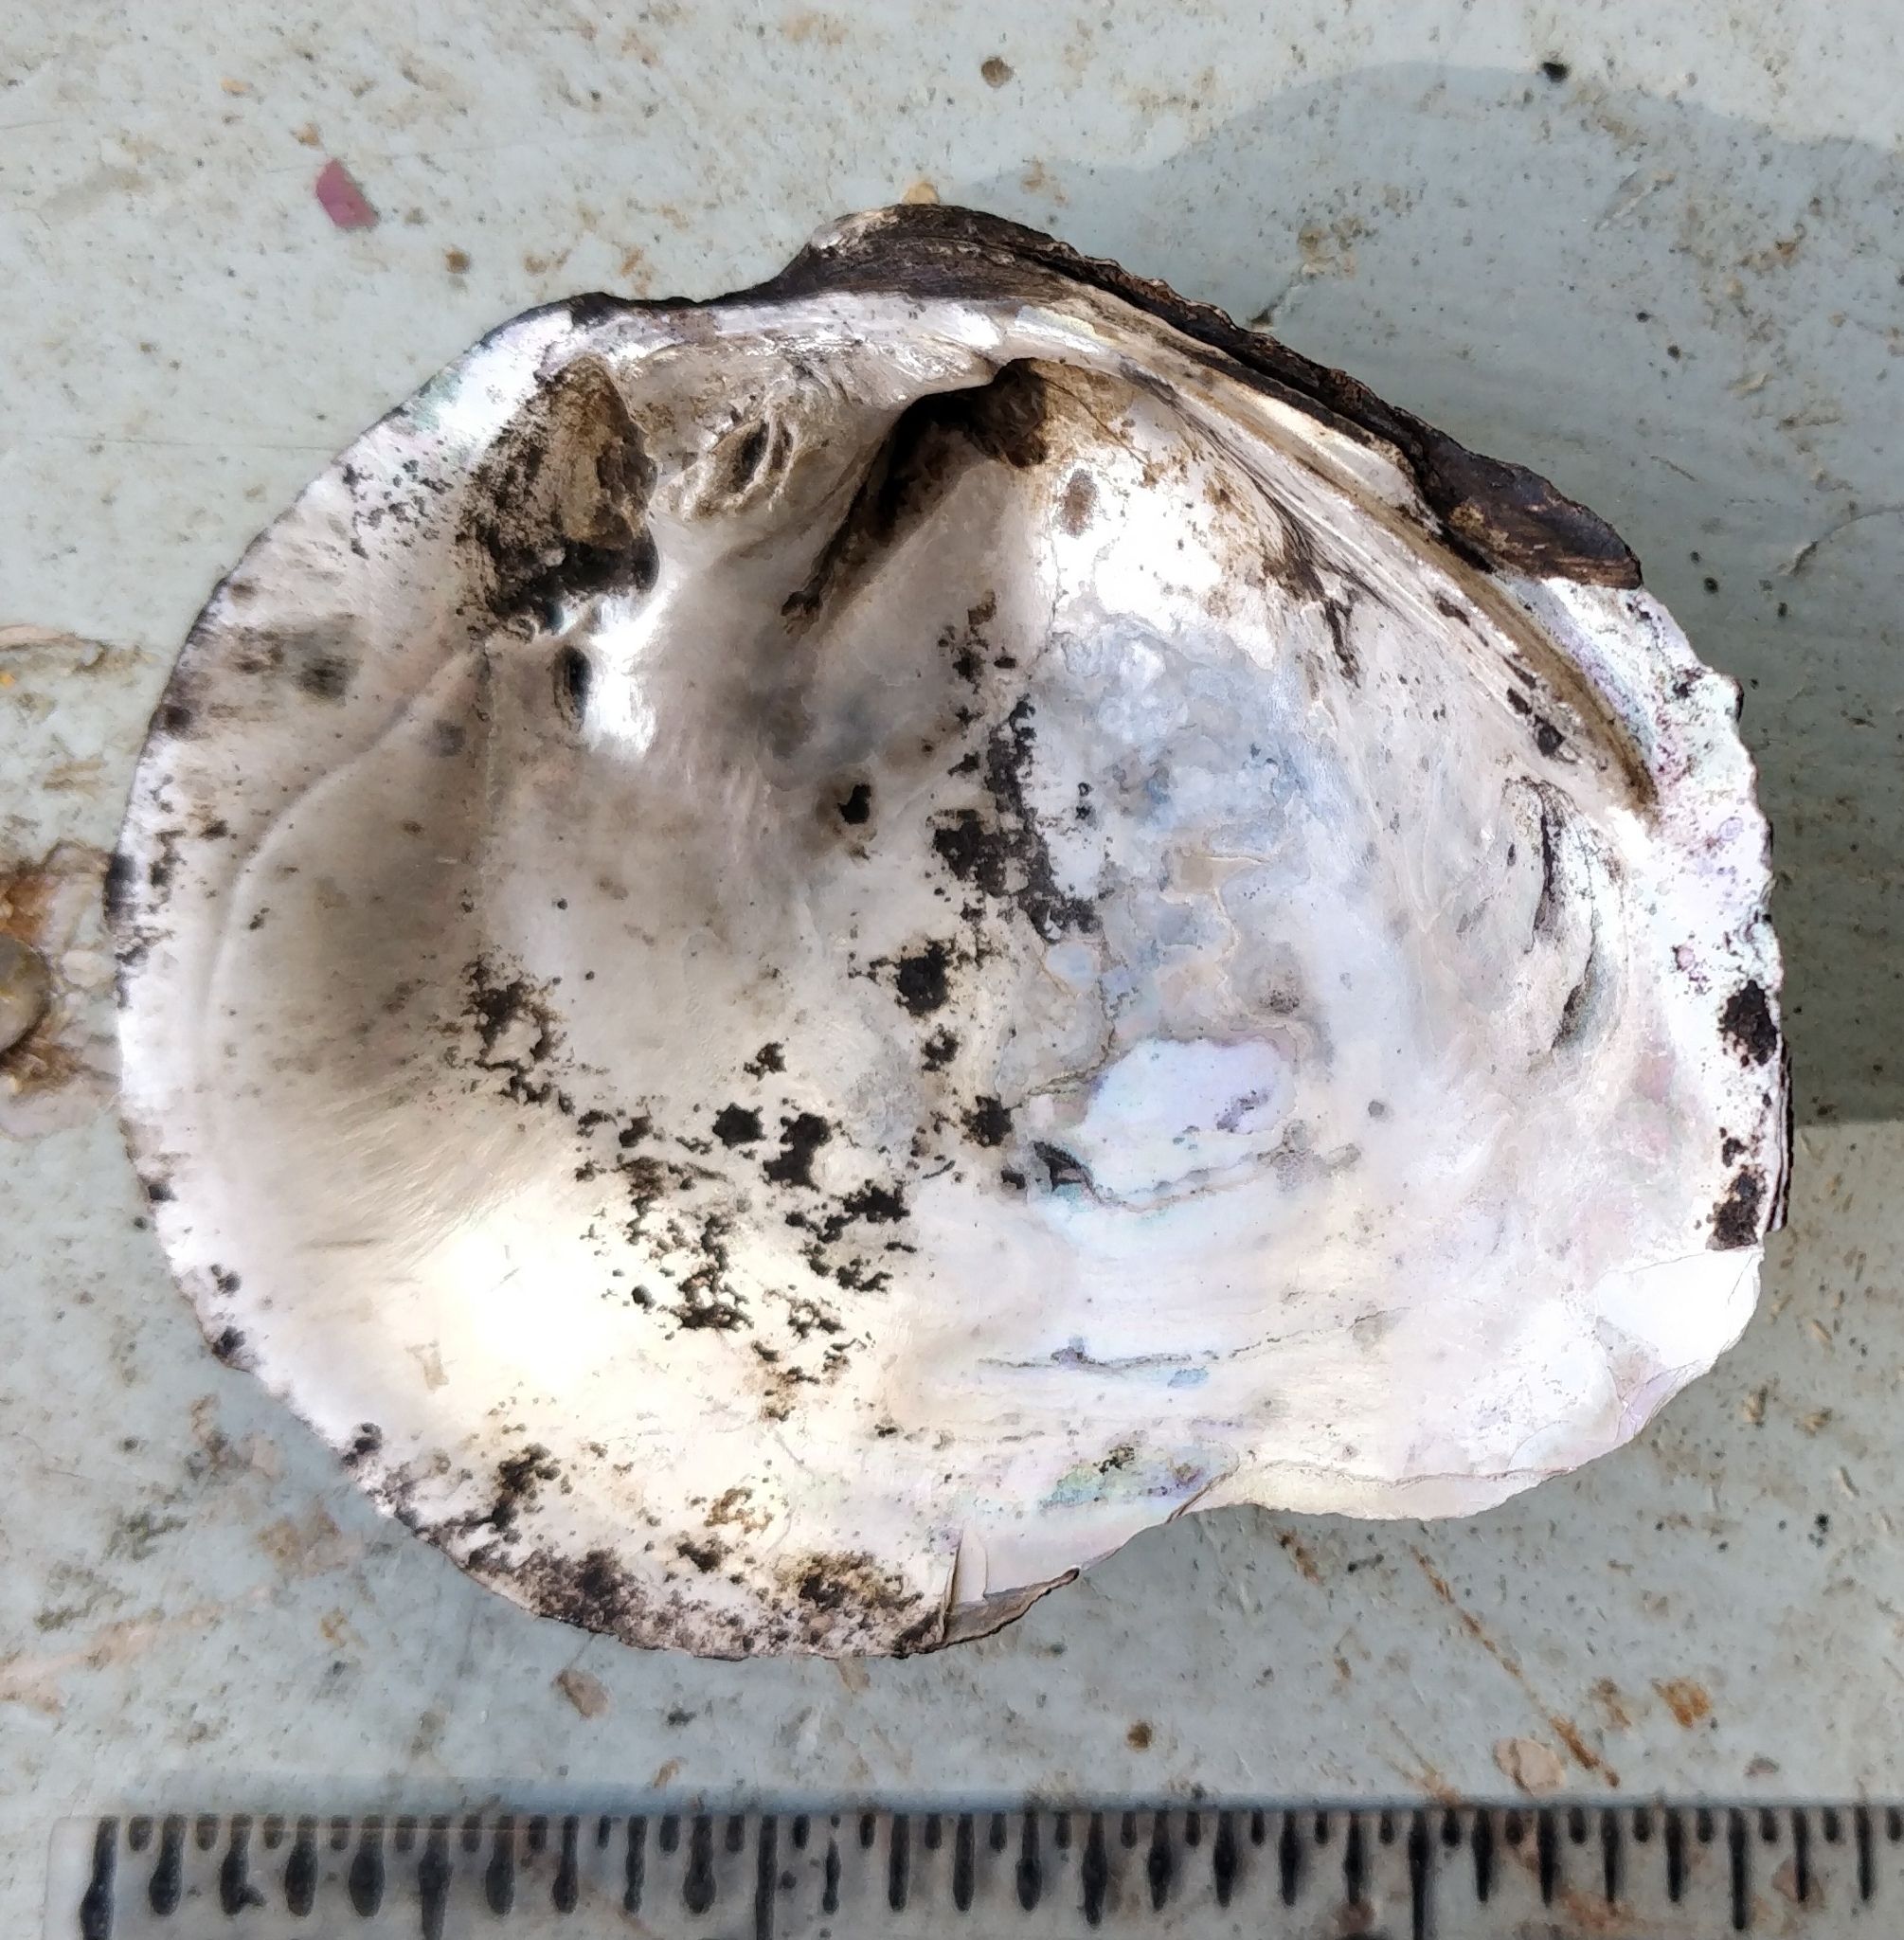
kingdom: Animalia
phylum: Mollusca
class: Bivalvia
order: Unionida
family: Unionidae
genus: Tritogonia
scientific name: Tritogonia nobilis
